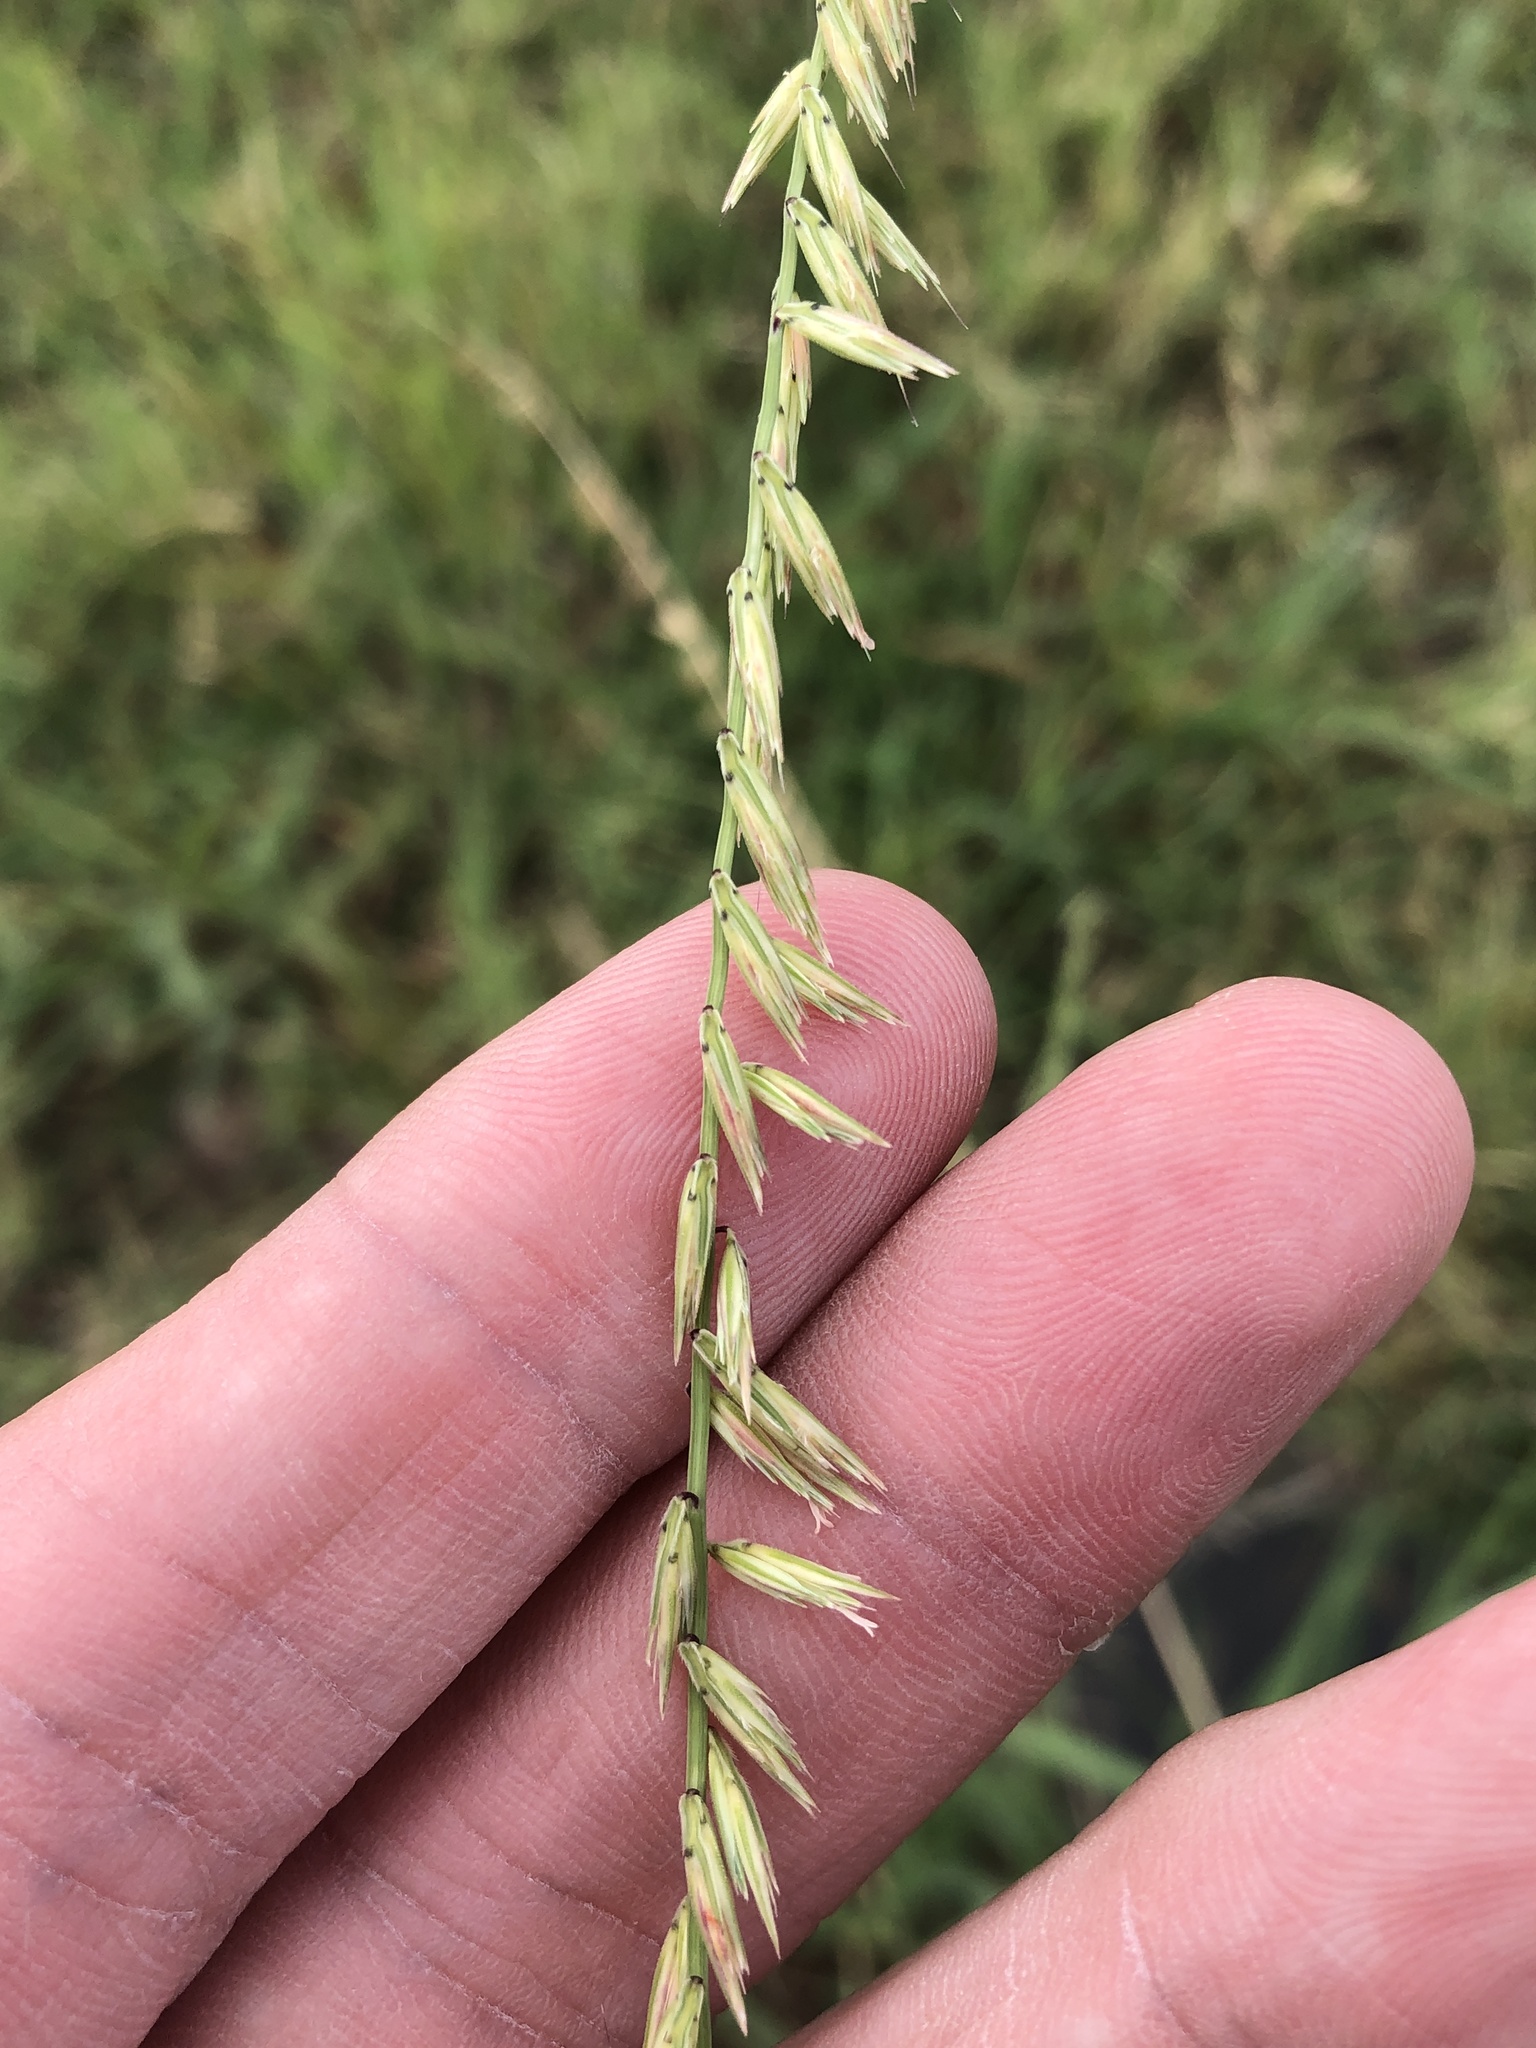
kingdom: Plantae
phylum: Tracheophyta
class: Liliopsida
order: Poales
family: Poaceae
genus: Bouteloua
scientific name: Bouteloua curtipendula
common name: Side-oats grama
